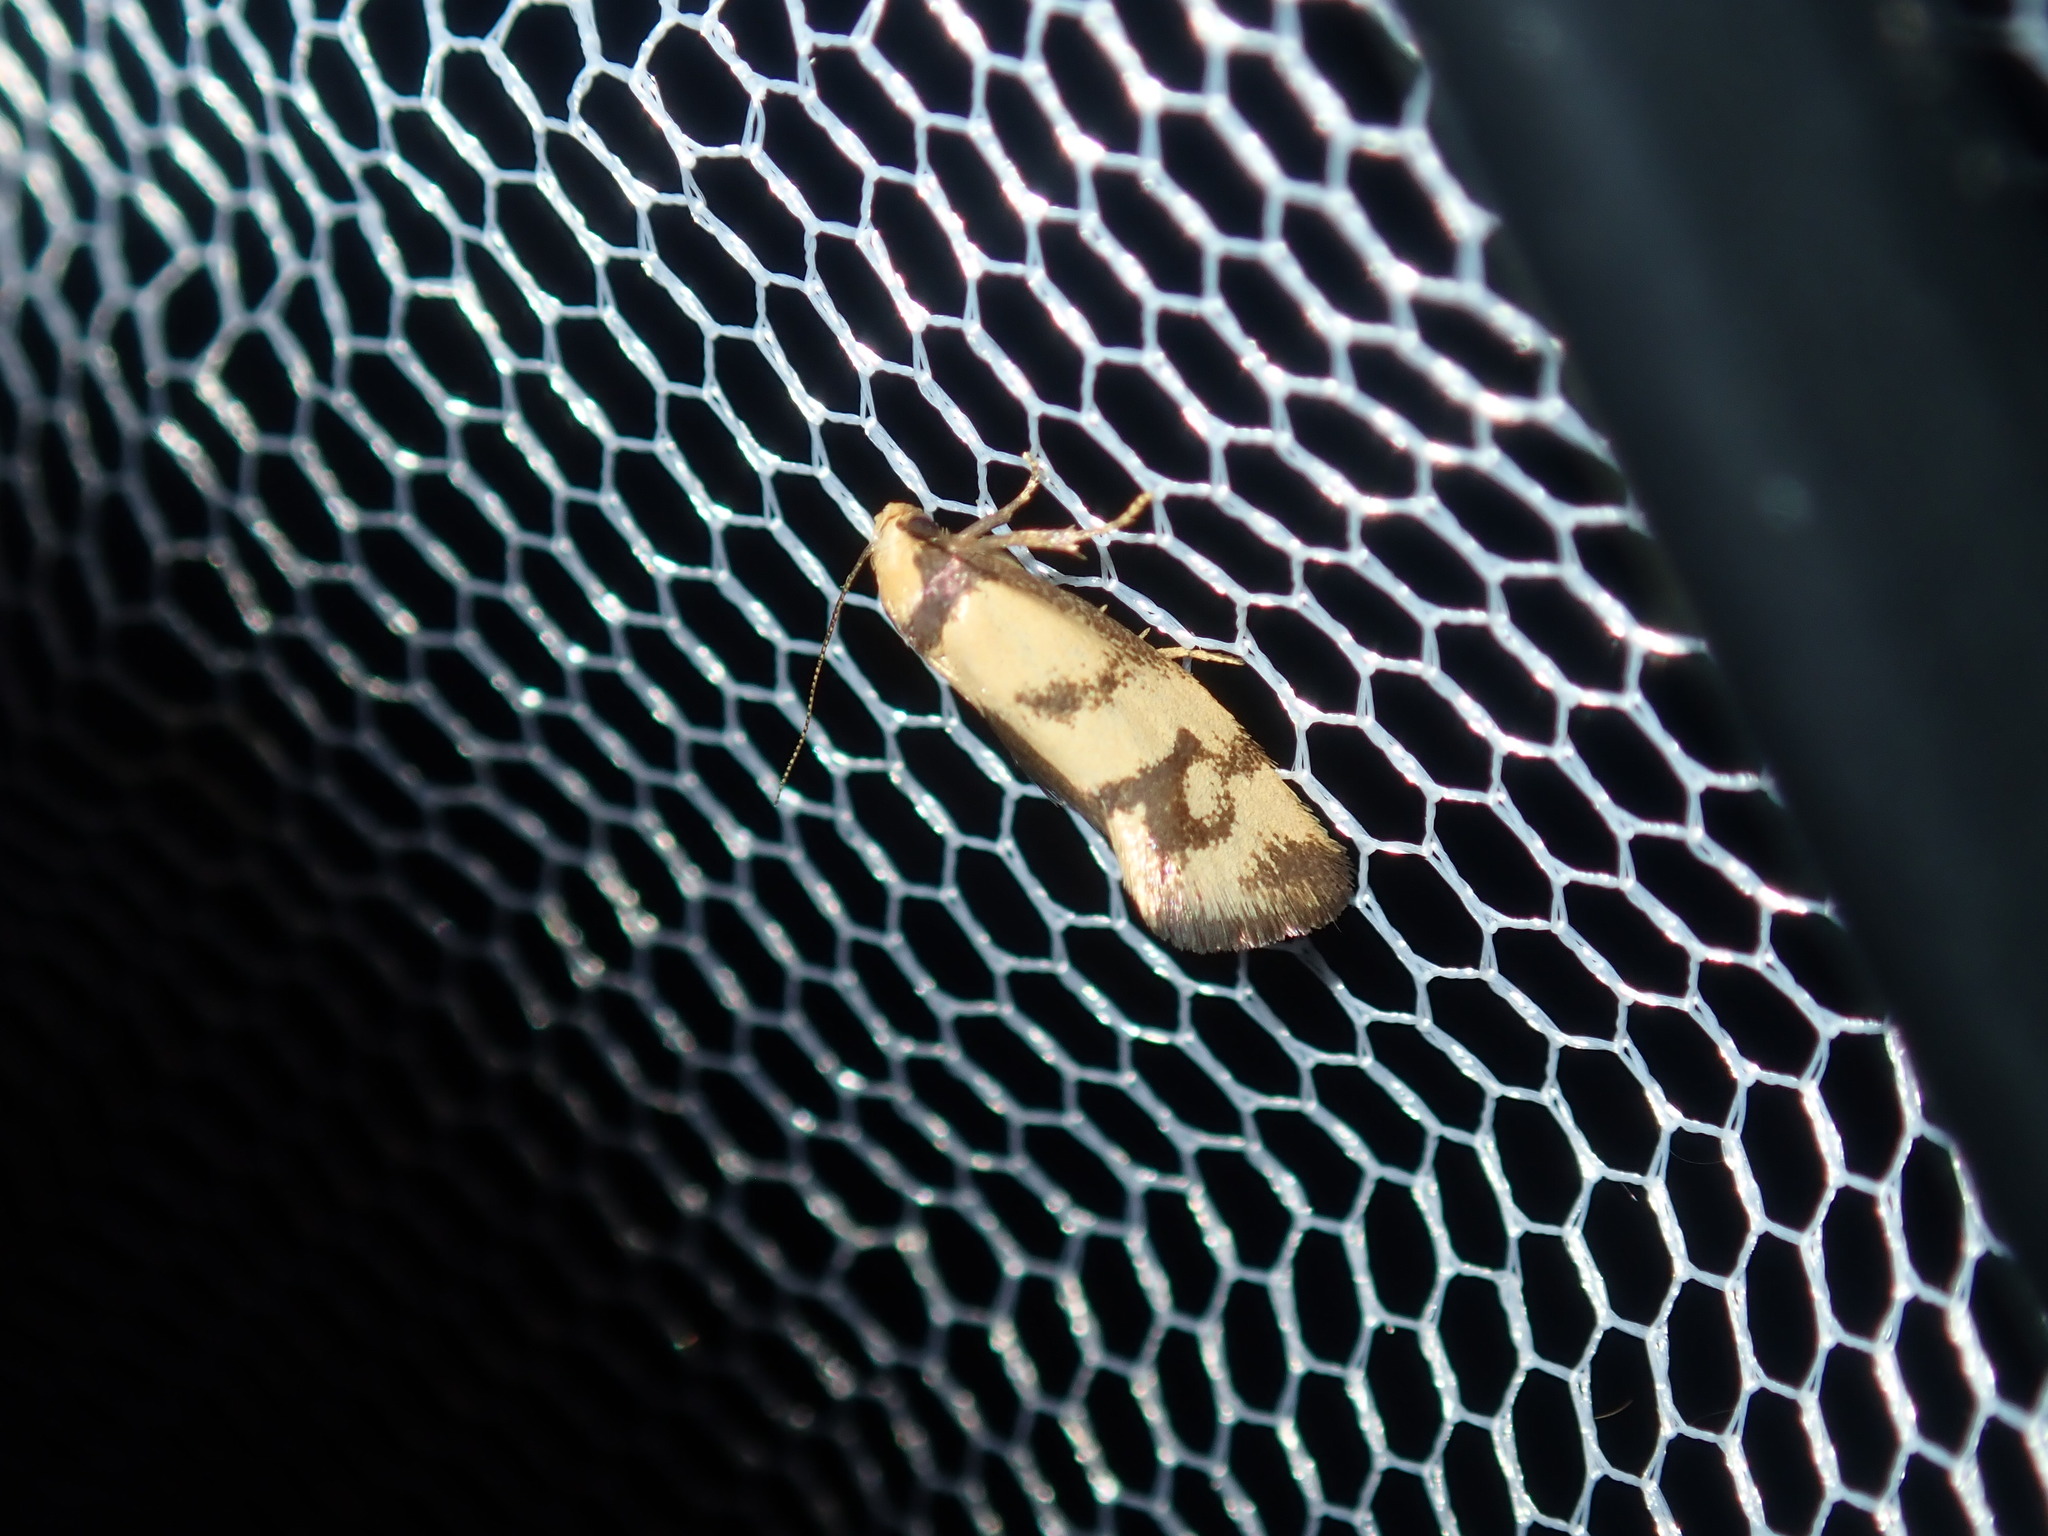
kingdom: Animalia
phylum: Arthropoda
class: Insecta
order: Lepidoptera
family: Oecophoridae
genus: Olbonoma
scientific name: Olbonoma triptycha
